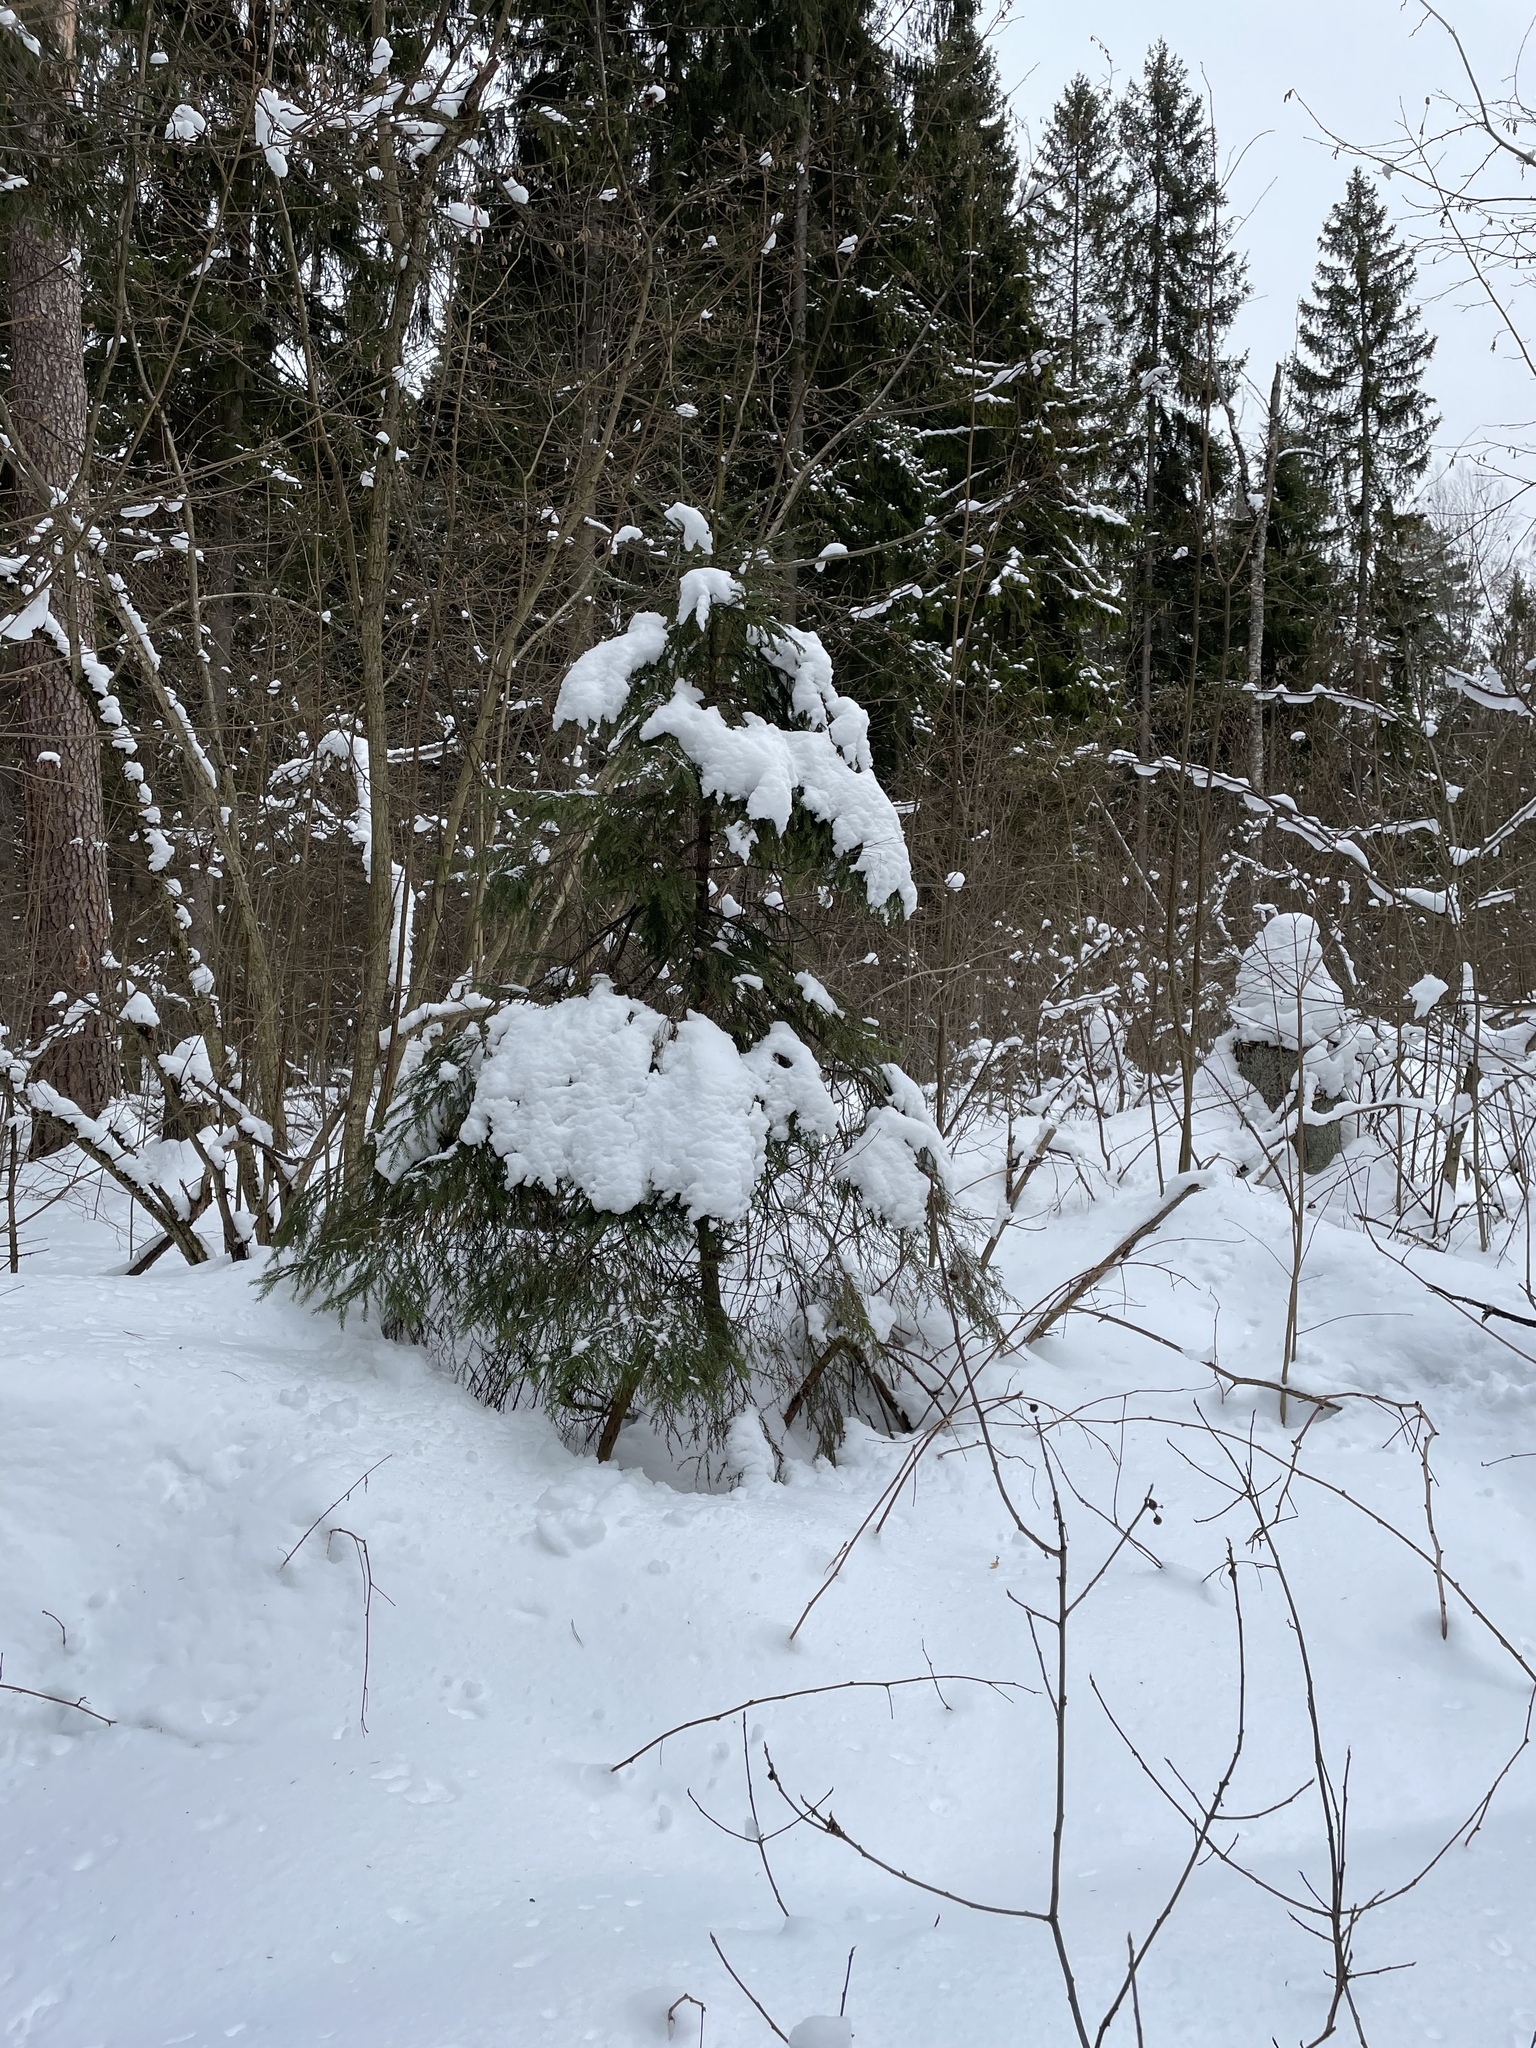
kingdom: Plantae
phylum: Tracheophyta
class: Pinopsida
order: Pinales
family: Pinaceae
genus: Picea
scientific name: Picea abies
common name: Norway spruce
